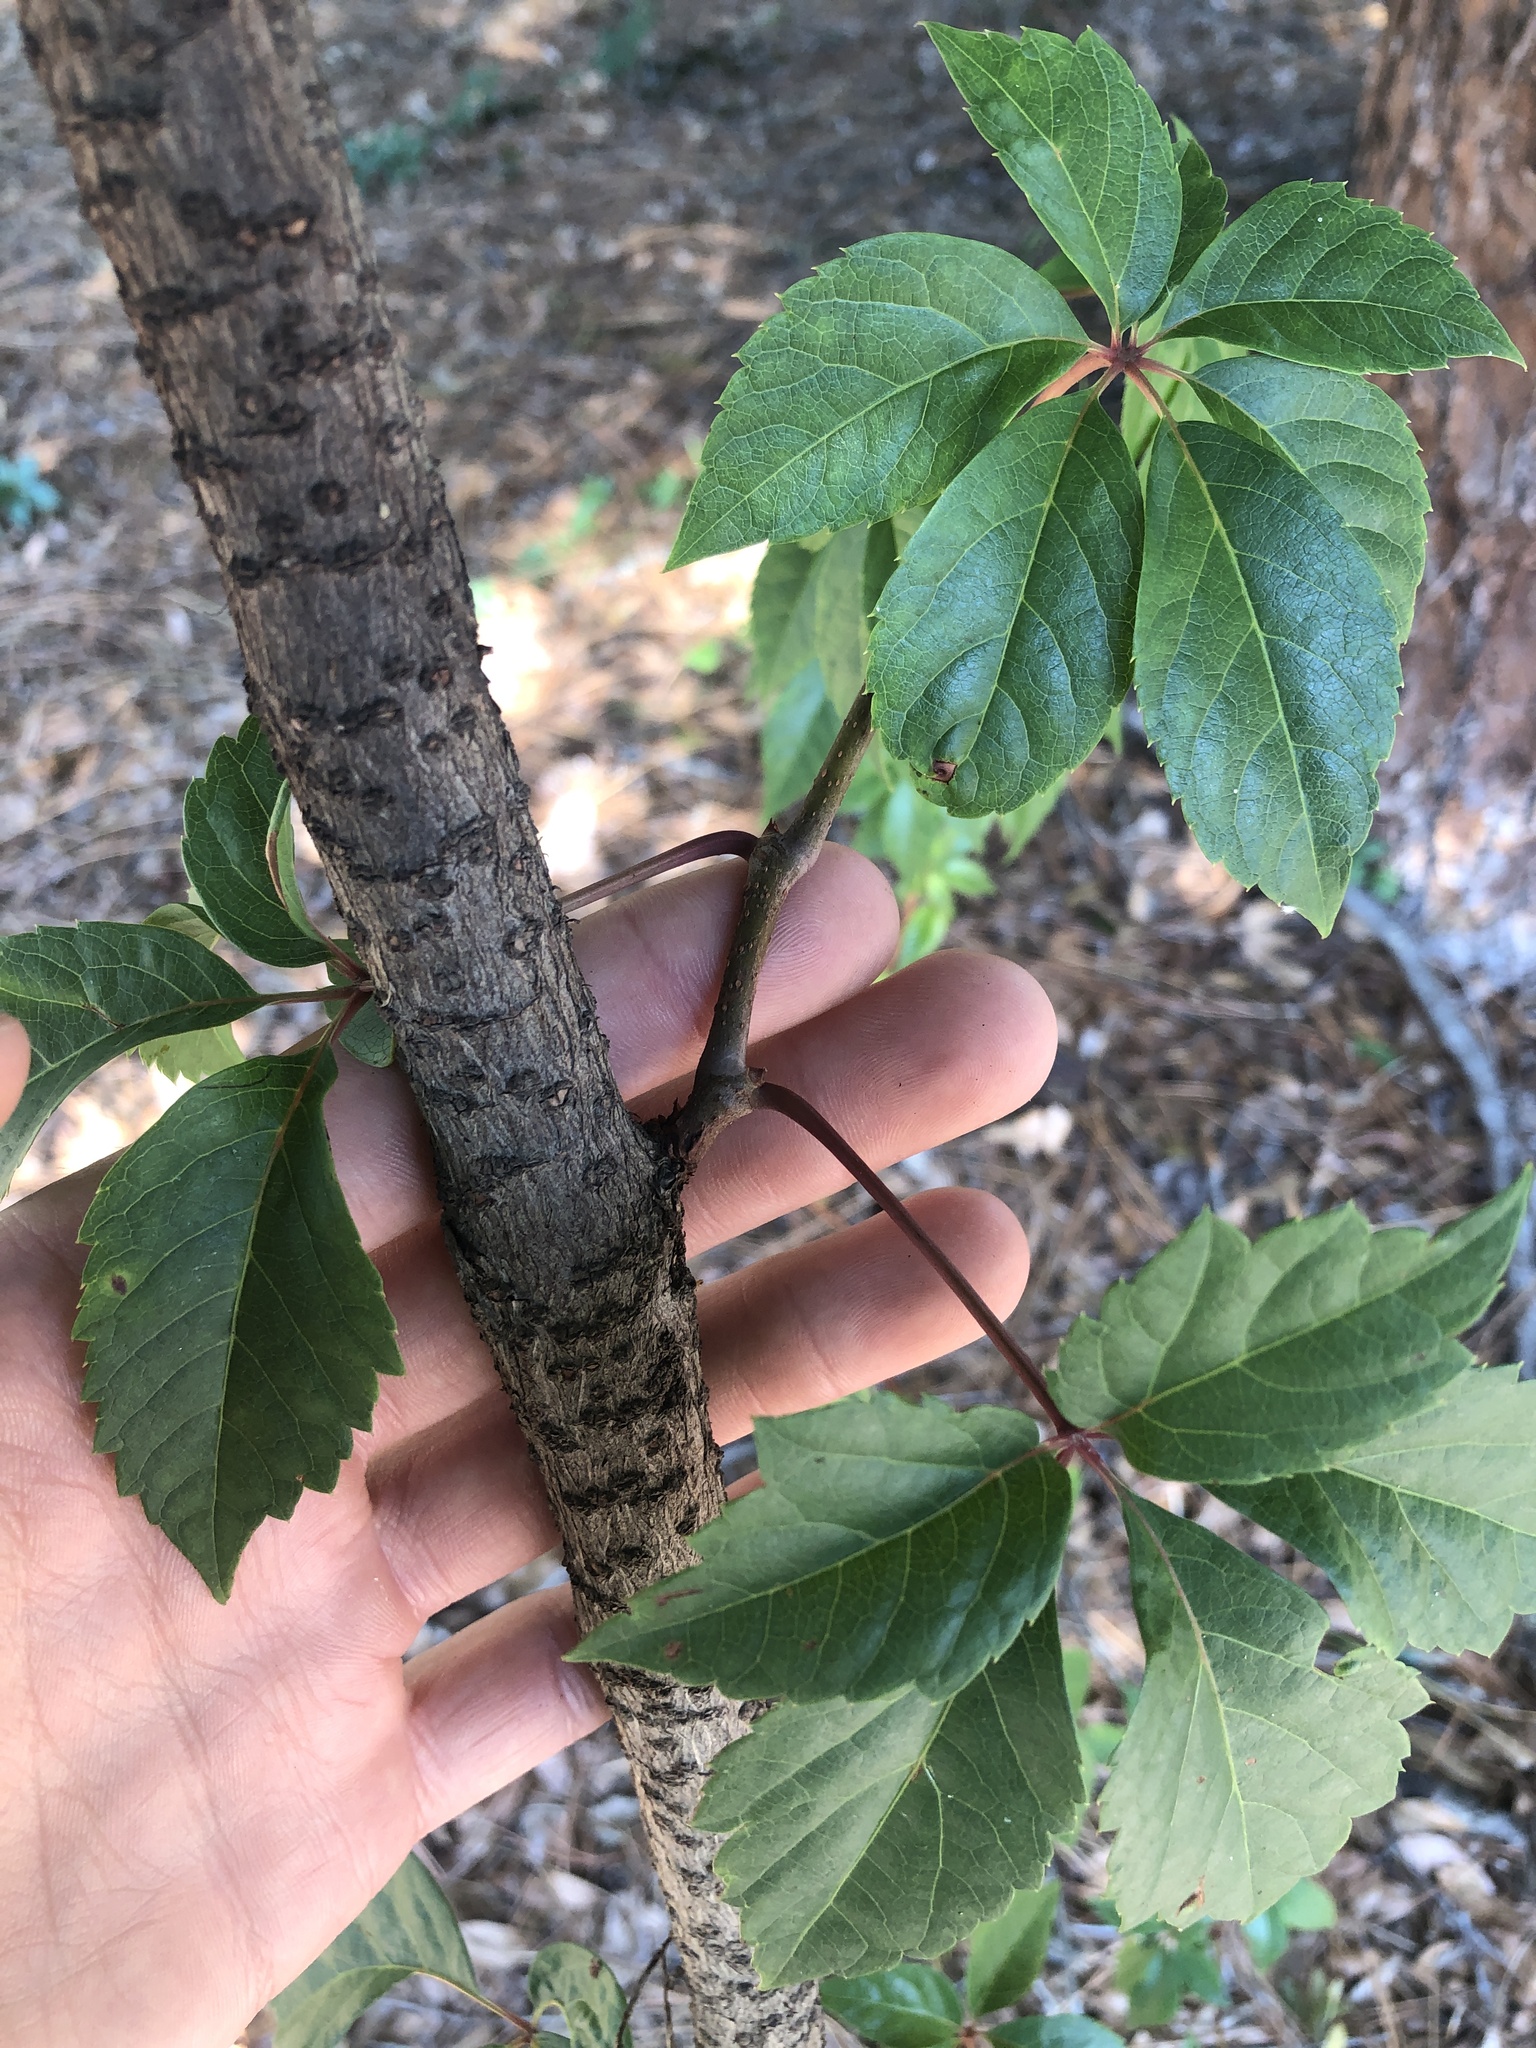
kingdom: Plantae
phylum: Tracheophyta
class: Magnoliopsida
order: Vitales
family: Vitaceae
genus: Parthenocissus
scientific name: Parthenocissus quinquefolia
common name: Virginia-creeper
